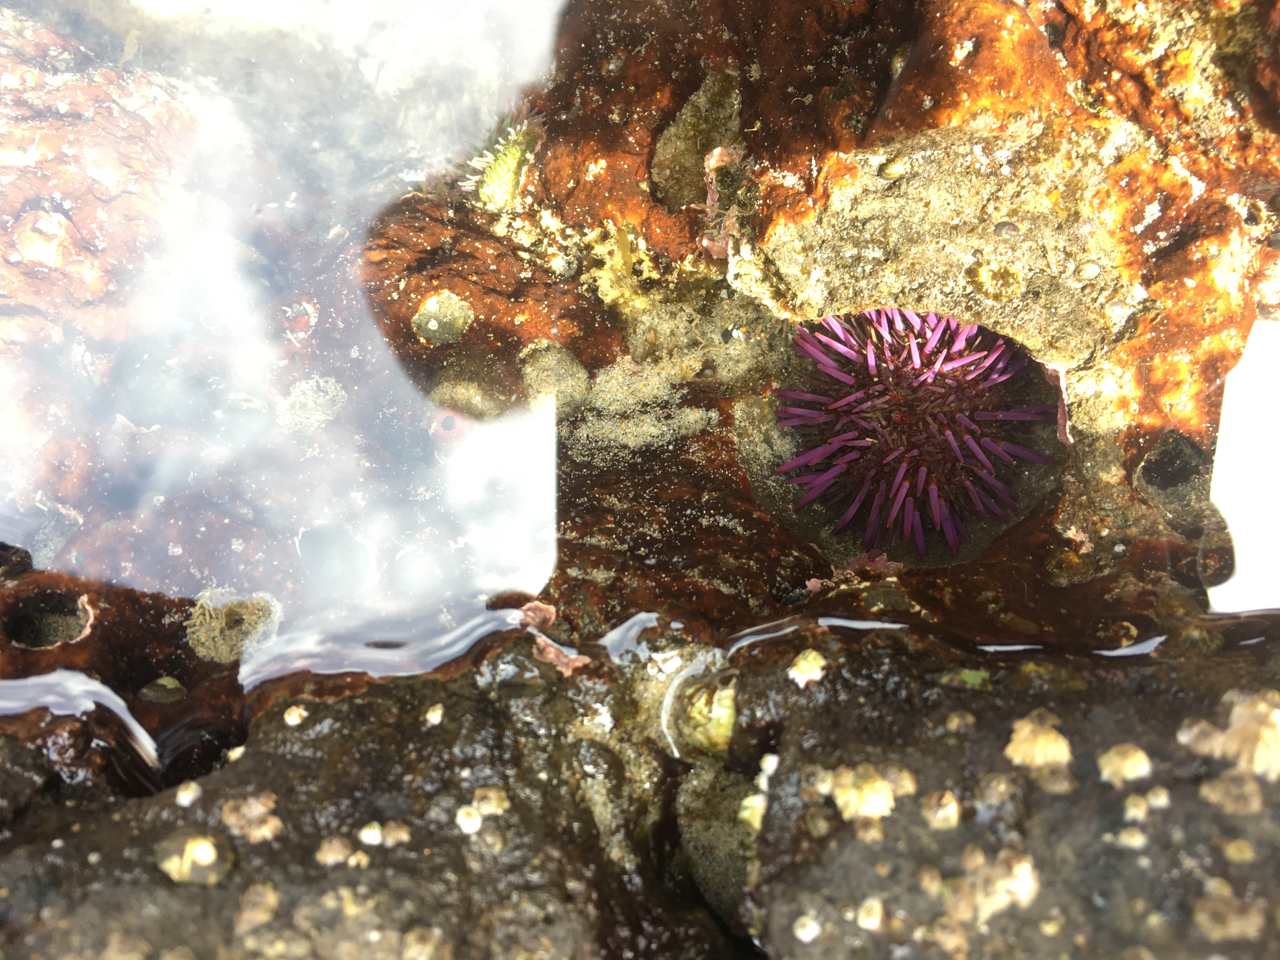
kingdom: Animalia
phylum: Echinodermata
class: Echinoidea
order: Camarodonta
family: Strongylocentrotidae
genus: Strongylocentrotus
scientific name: Strongylocentrotus purpuratus
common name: Purple sea urchin
